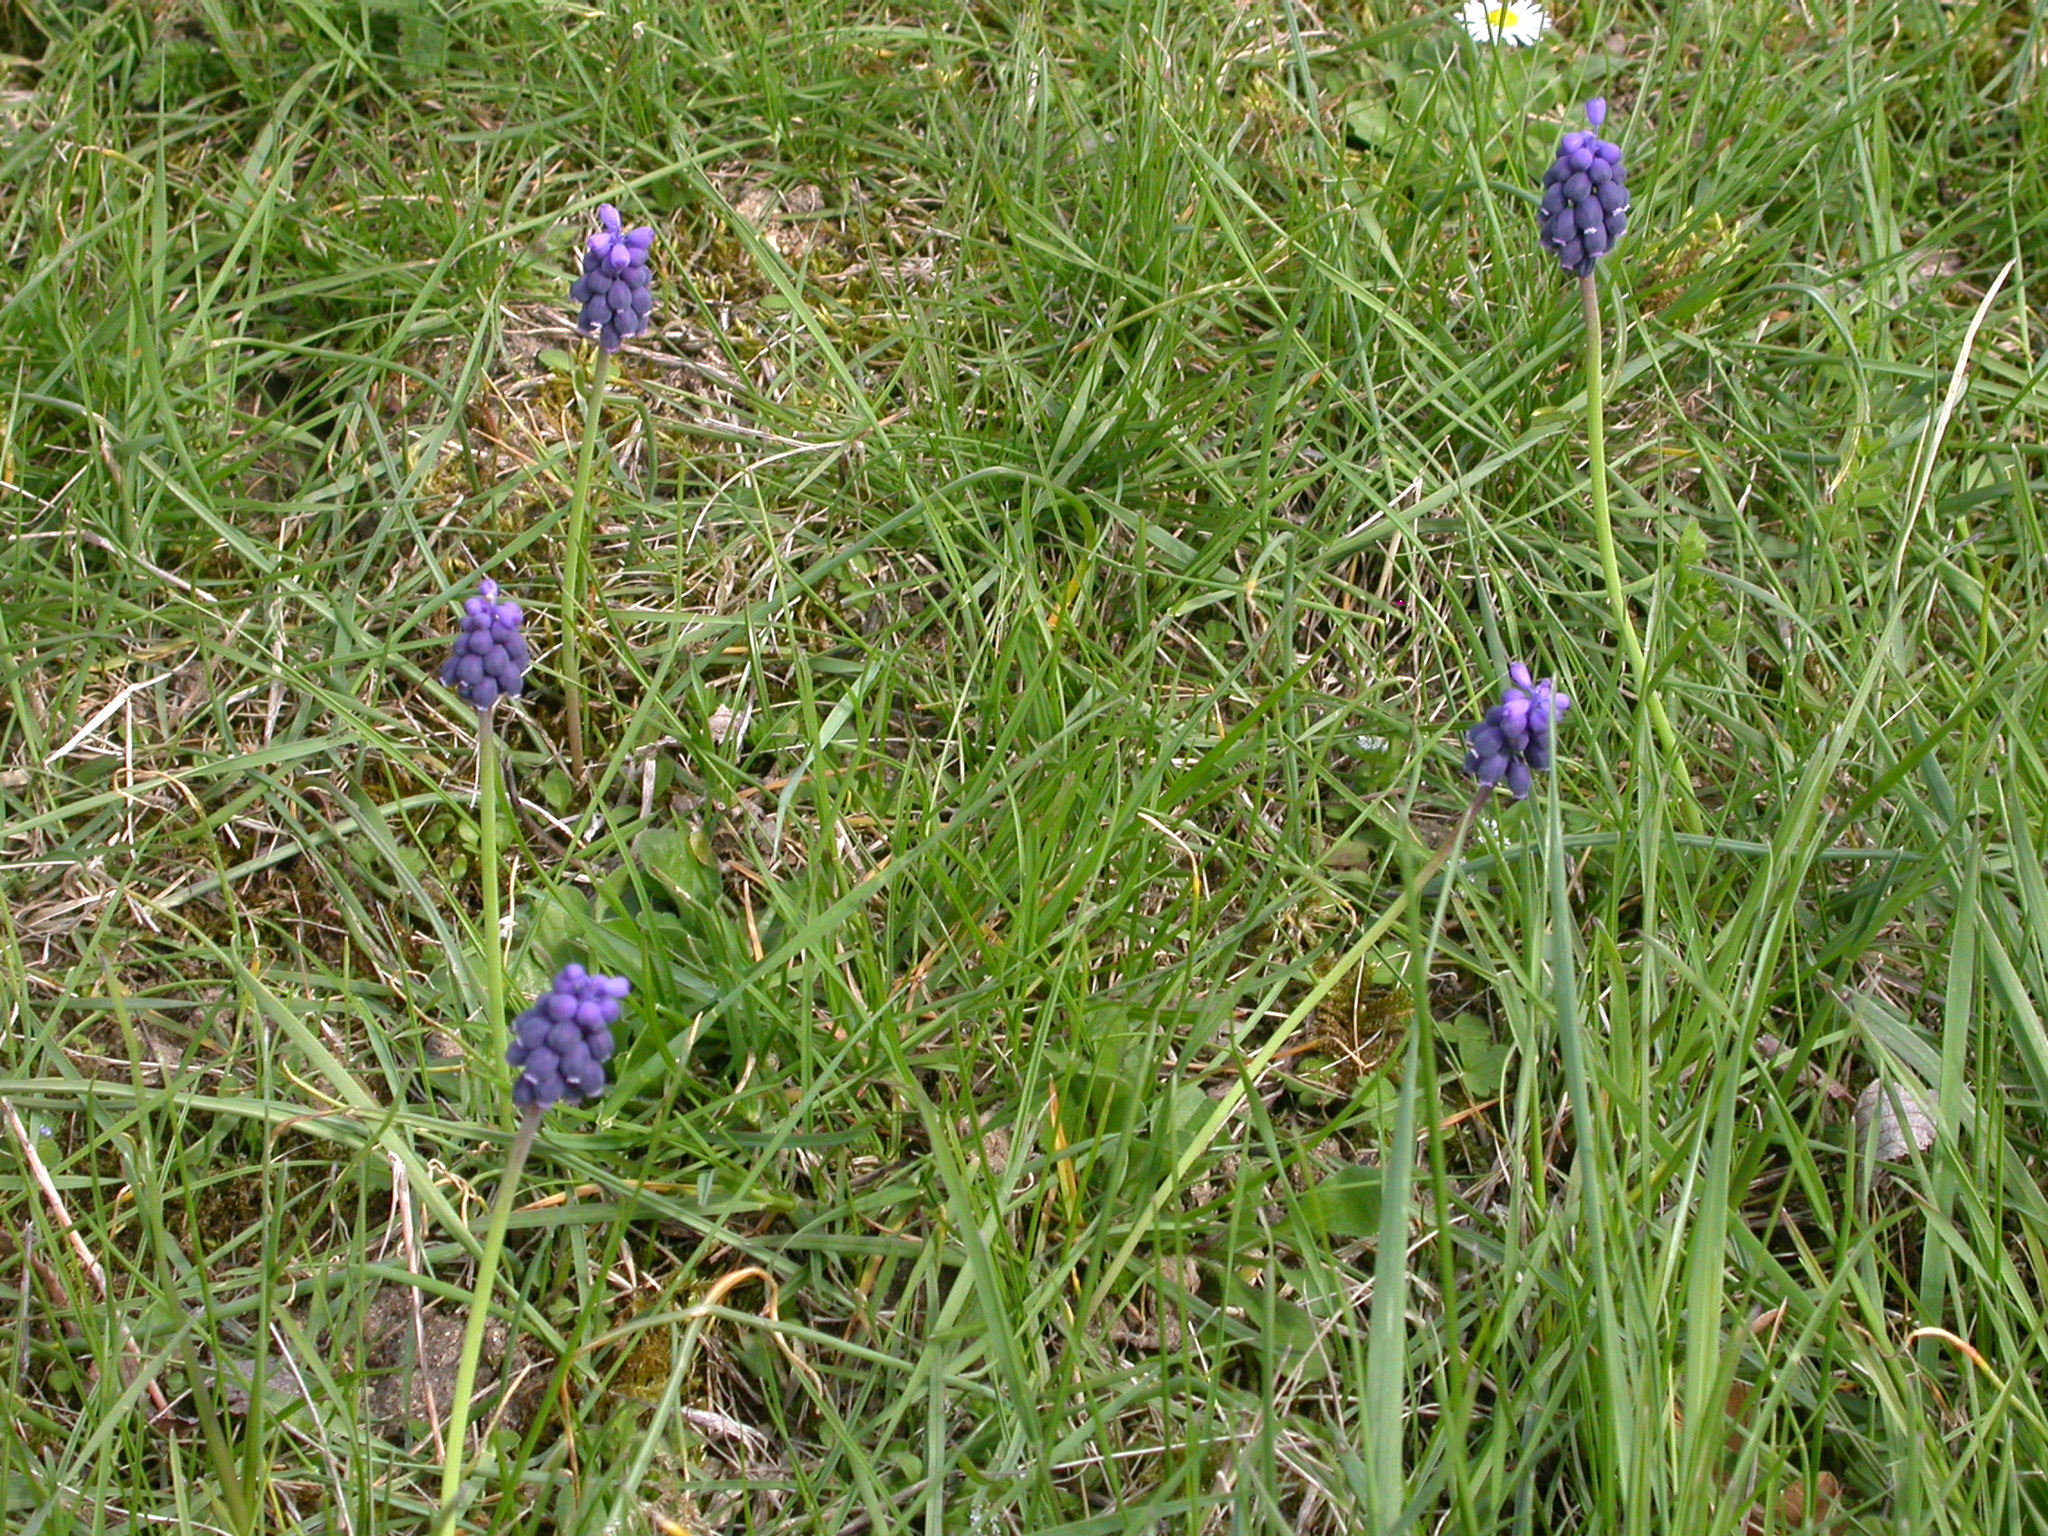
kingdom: Plantae
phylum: Tracheophyta
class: Liliopsida
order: Asparagales
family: Asparagaceae
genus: Muscari
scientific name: Muscari neglectum
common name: Grape-hyacinth
